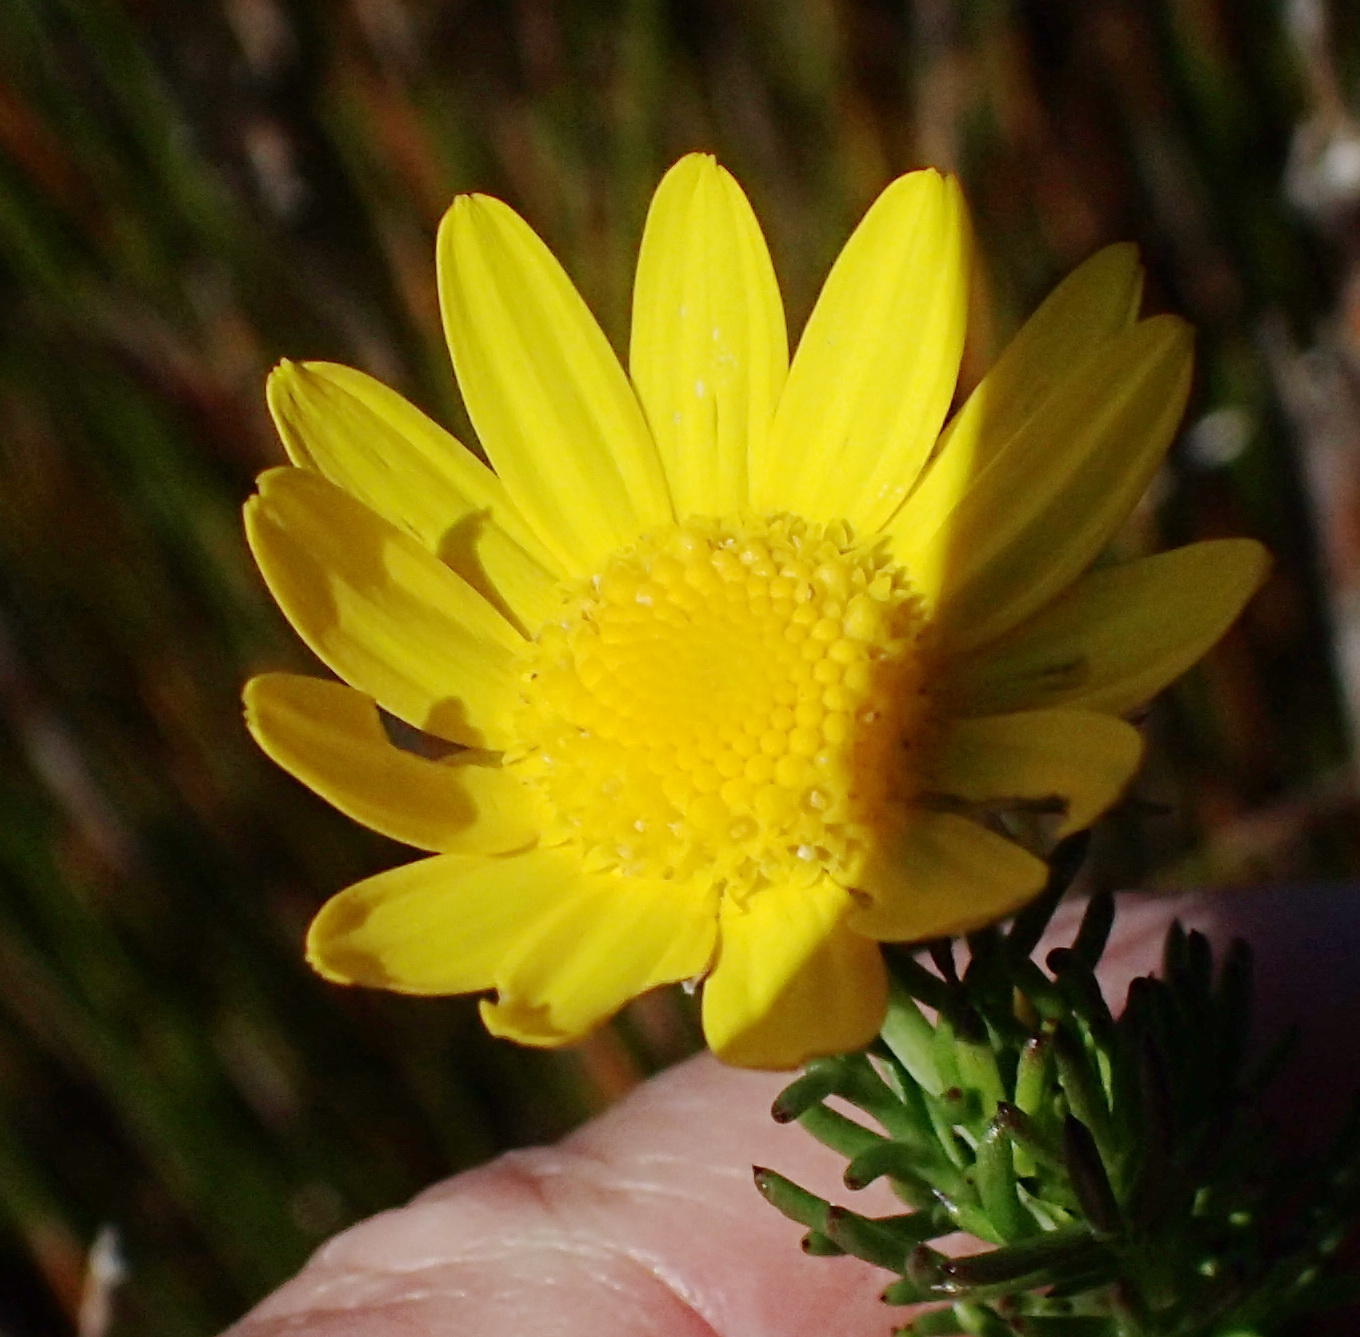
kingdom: Plantae
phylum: Tracheophyta
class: Magnoliopsida
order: Asterales
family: Asteraceae
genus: Euryops
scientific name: Euryops pinnatipartitus
